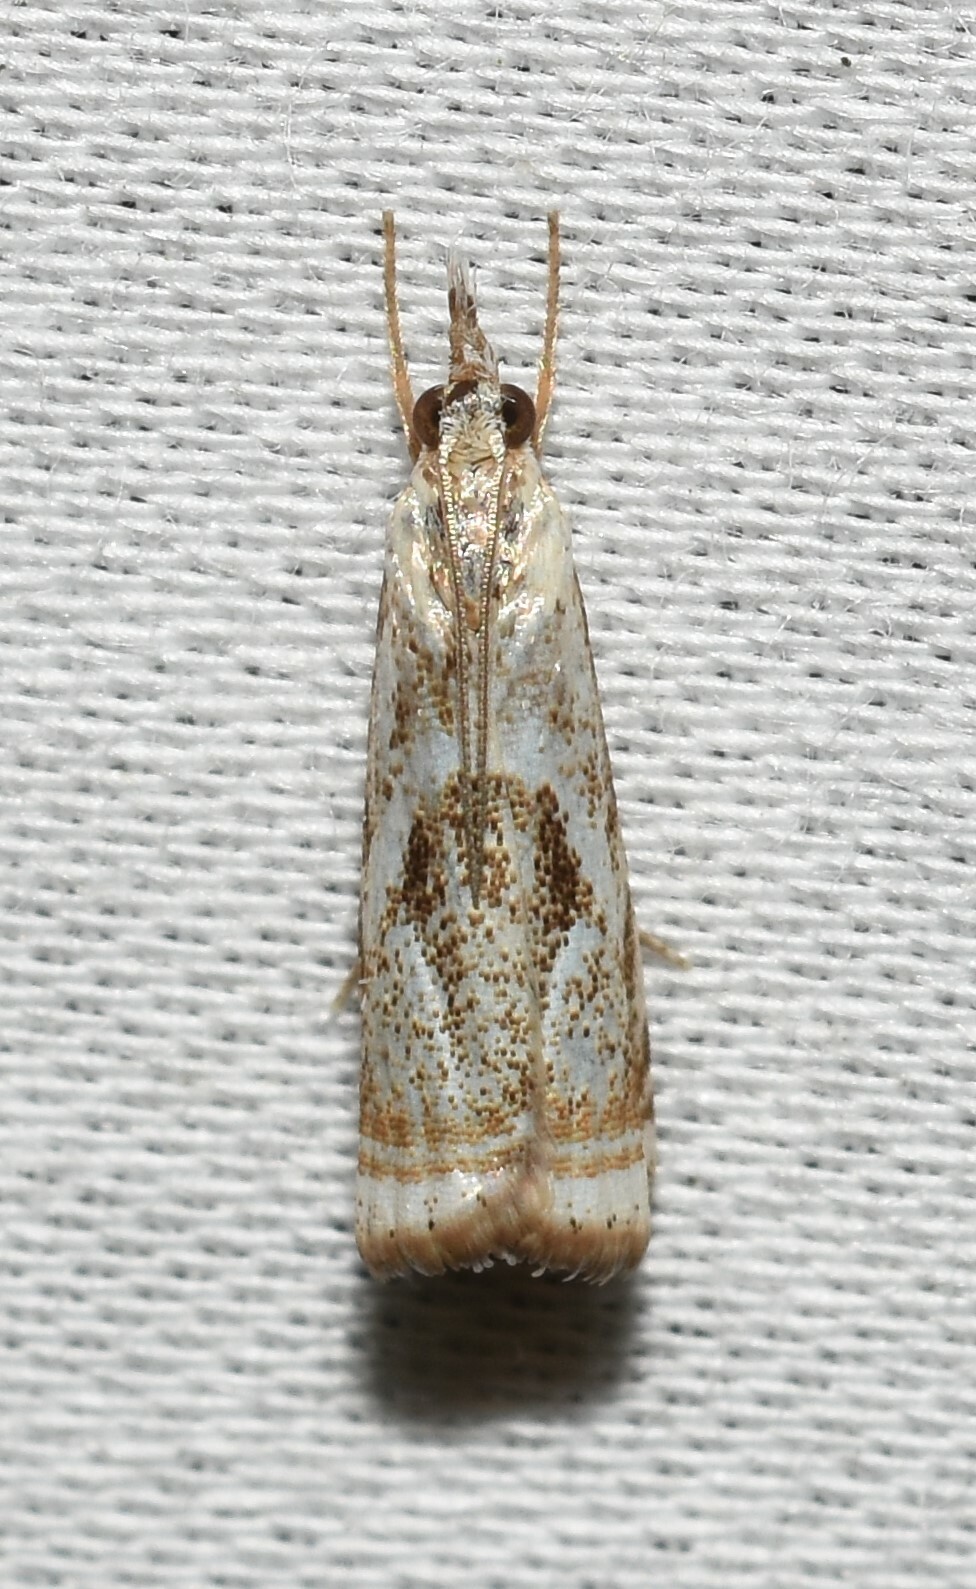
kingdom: Animalia
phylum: Arthropoda
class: Insecta
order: Lepidoptera
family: Crambidae
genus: Microcrambus
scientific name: Microcrambus elegans
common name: Elegant grass-veneer
